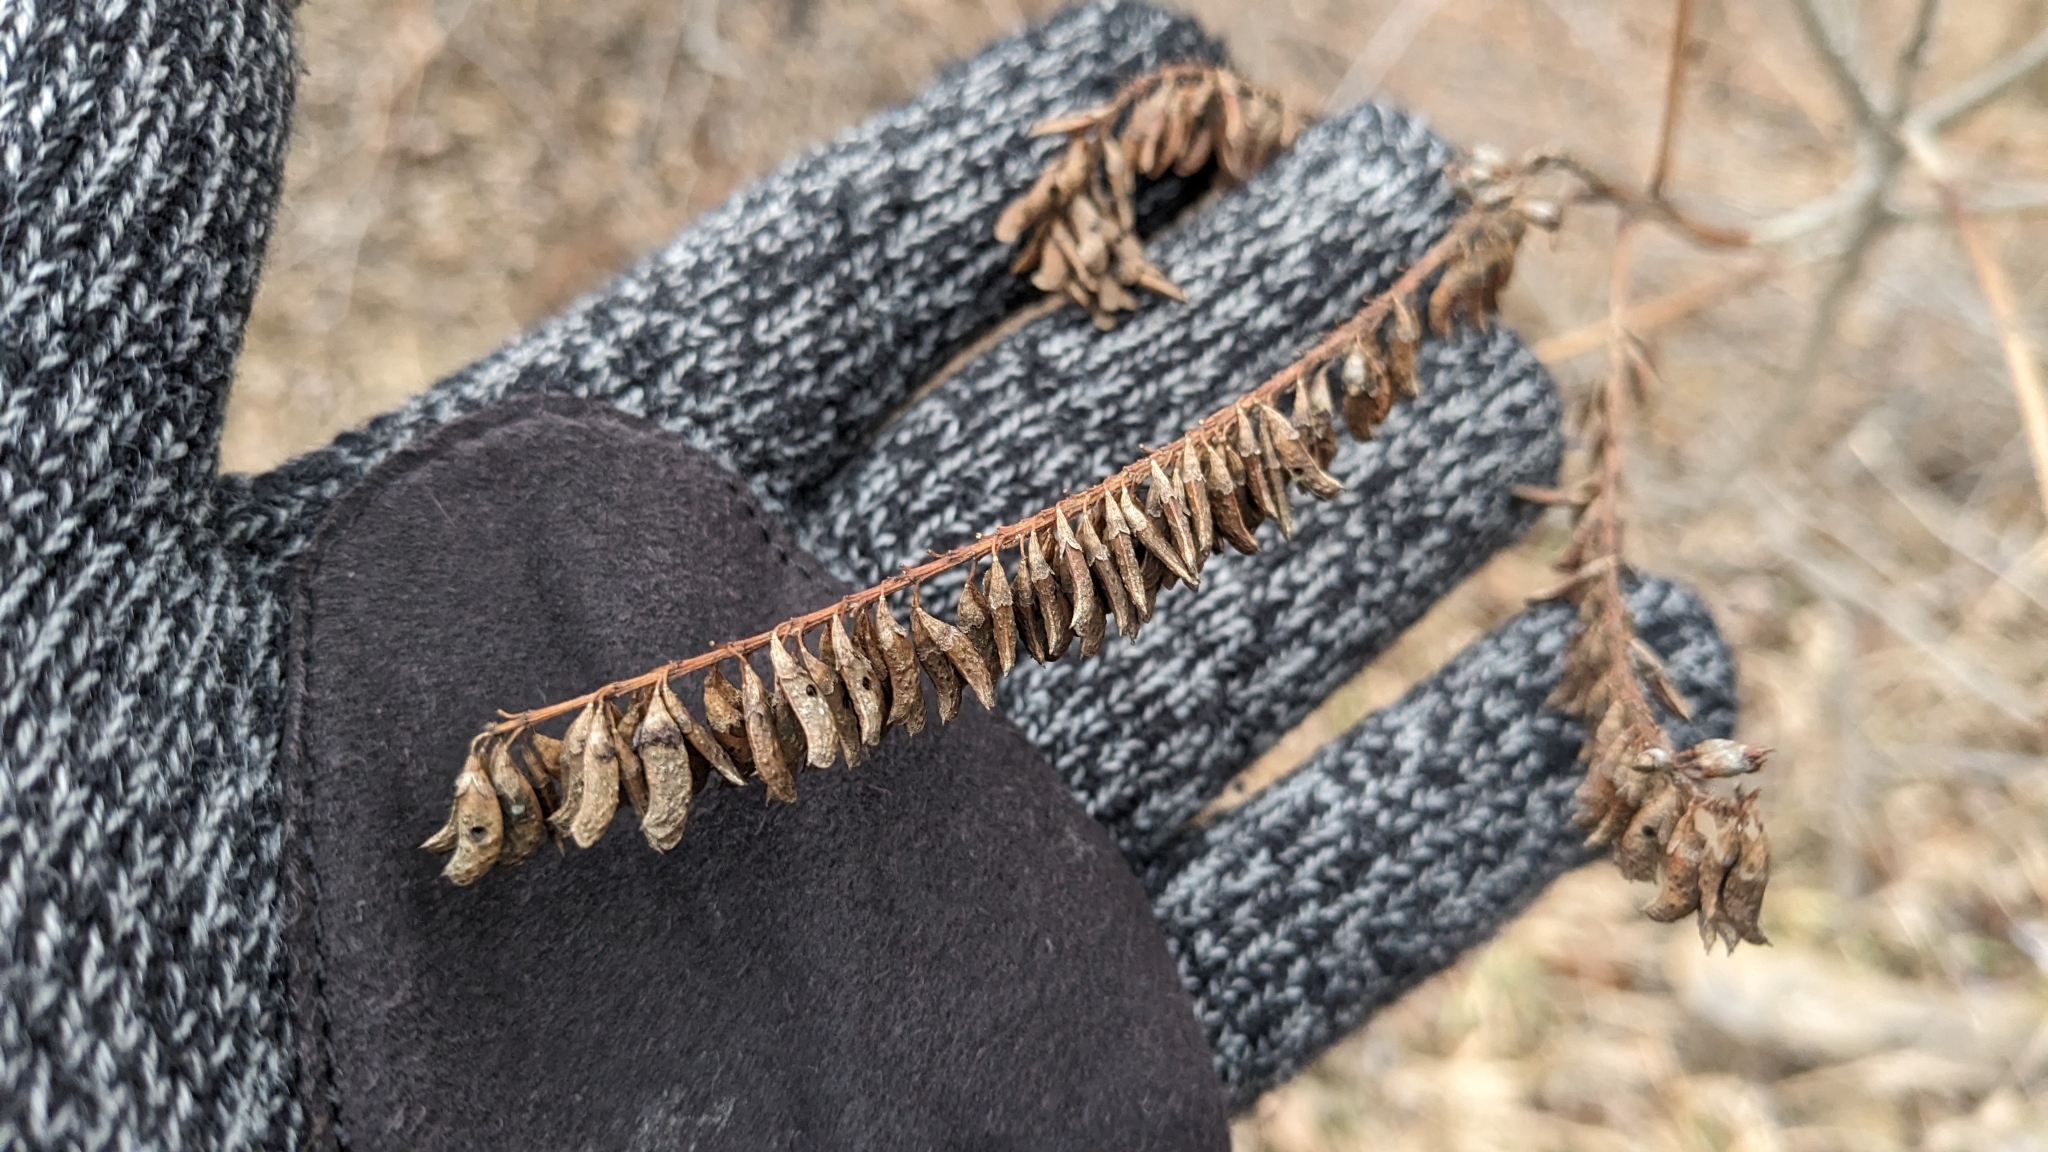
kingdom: Plantae
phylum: Tracheophyta
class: Magnoliopsida
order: Fabales
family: Fabaceae
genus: Amorpha
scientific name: Amorpha fruticosa
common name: False indigo
